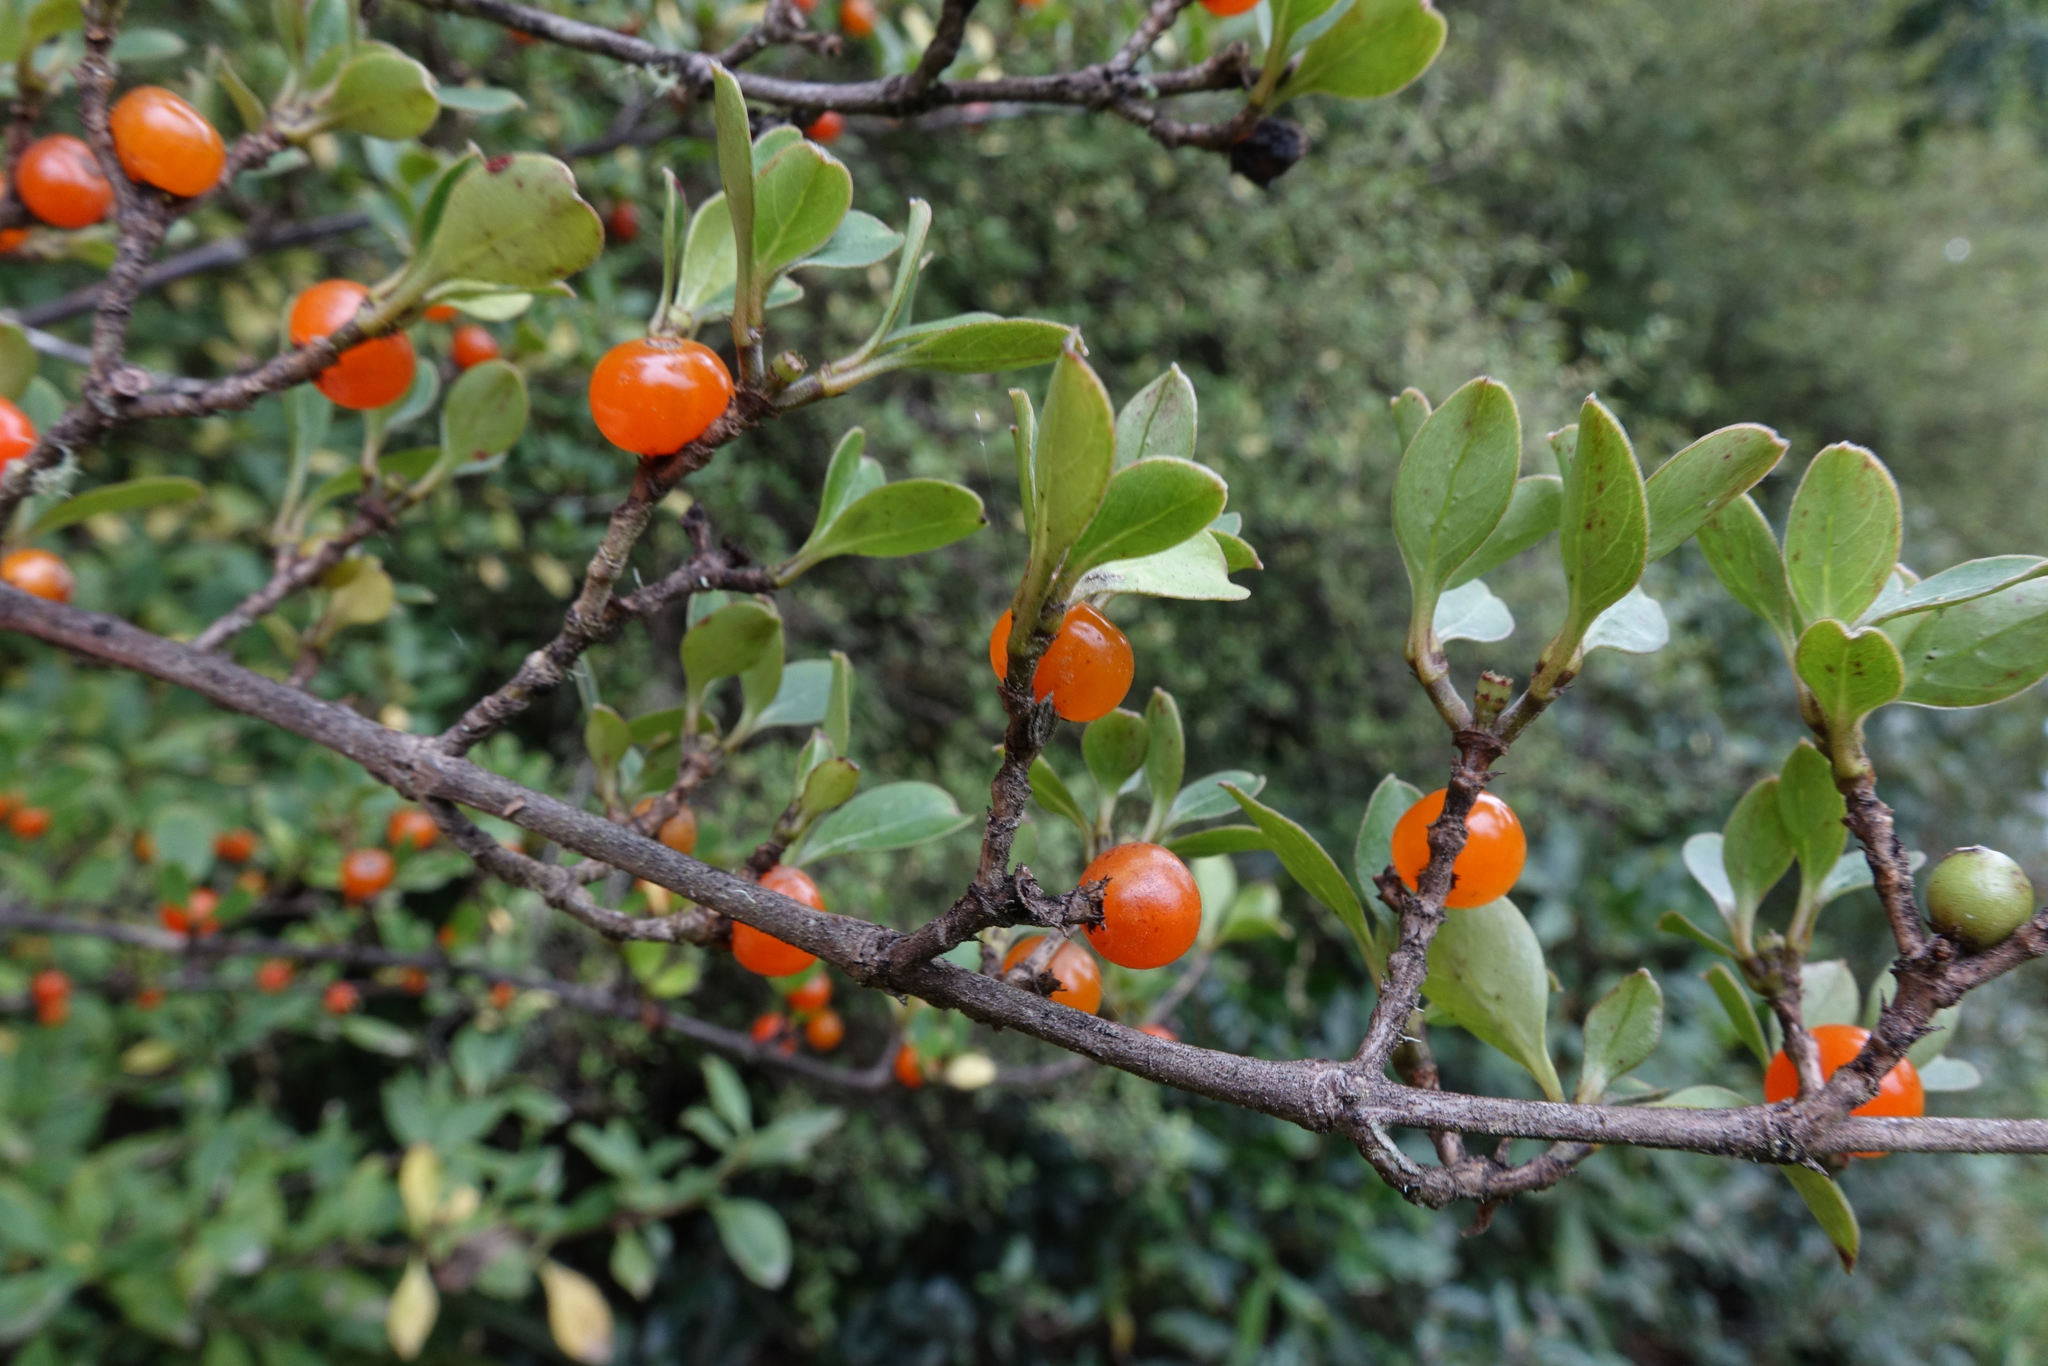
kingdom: Plantae
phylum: Tracheophyta
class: Magnoliopsida
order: Gentianales
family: Rubiaceae
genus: Coprosma
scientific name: Coprosma foetidissima
